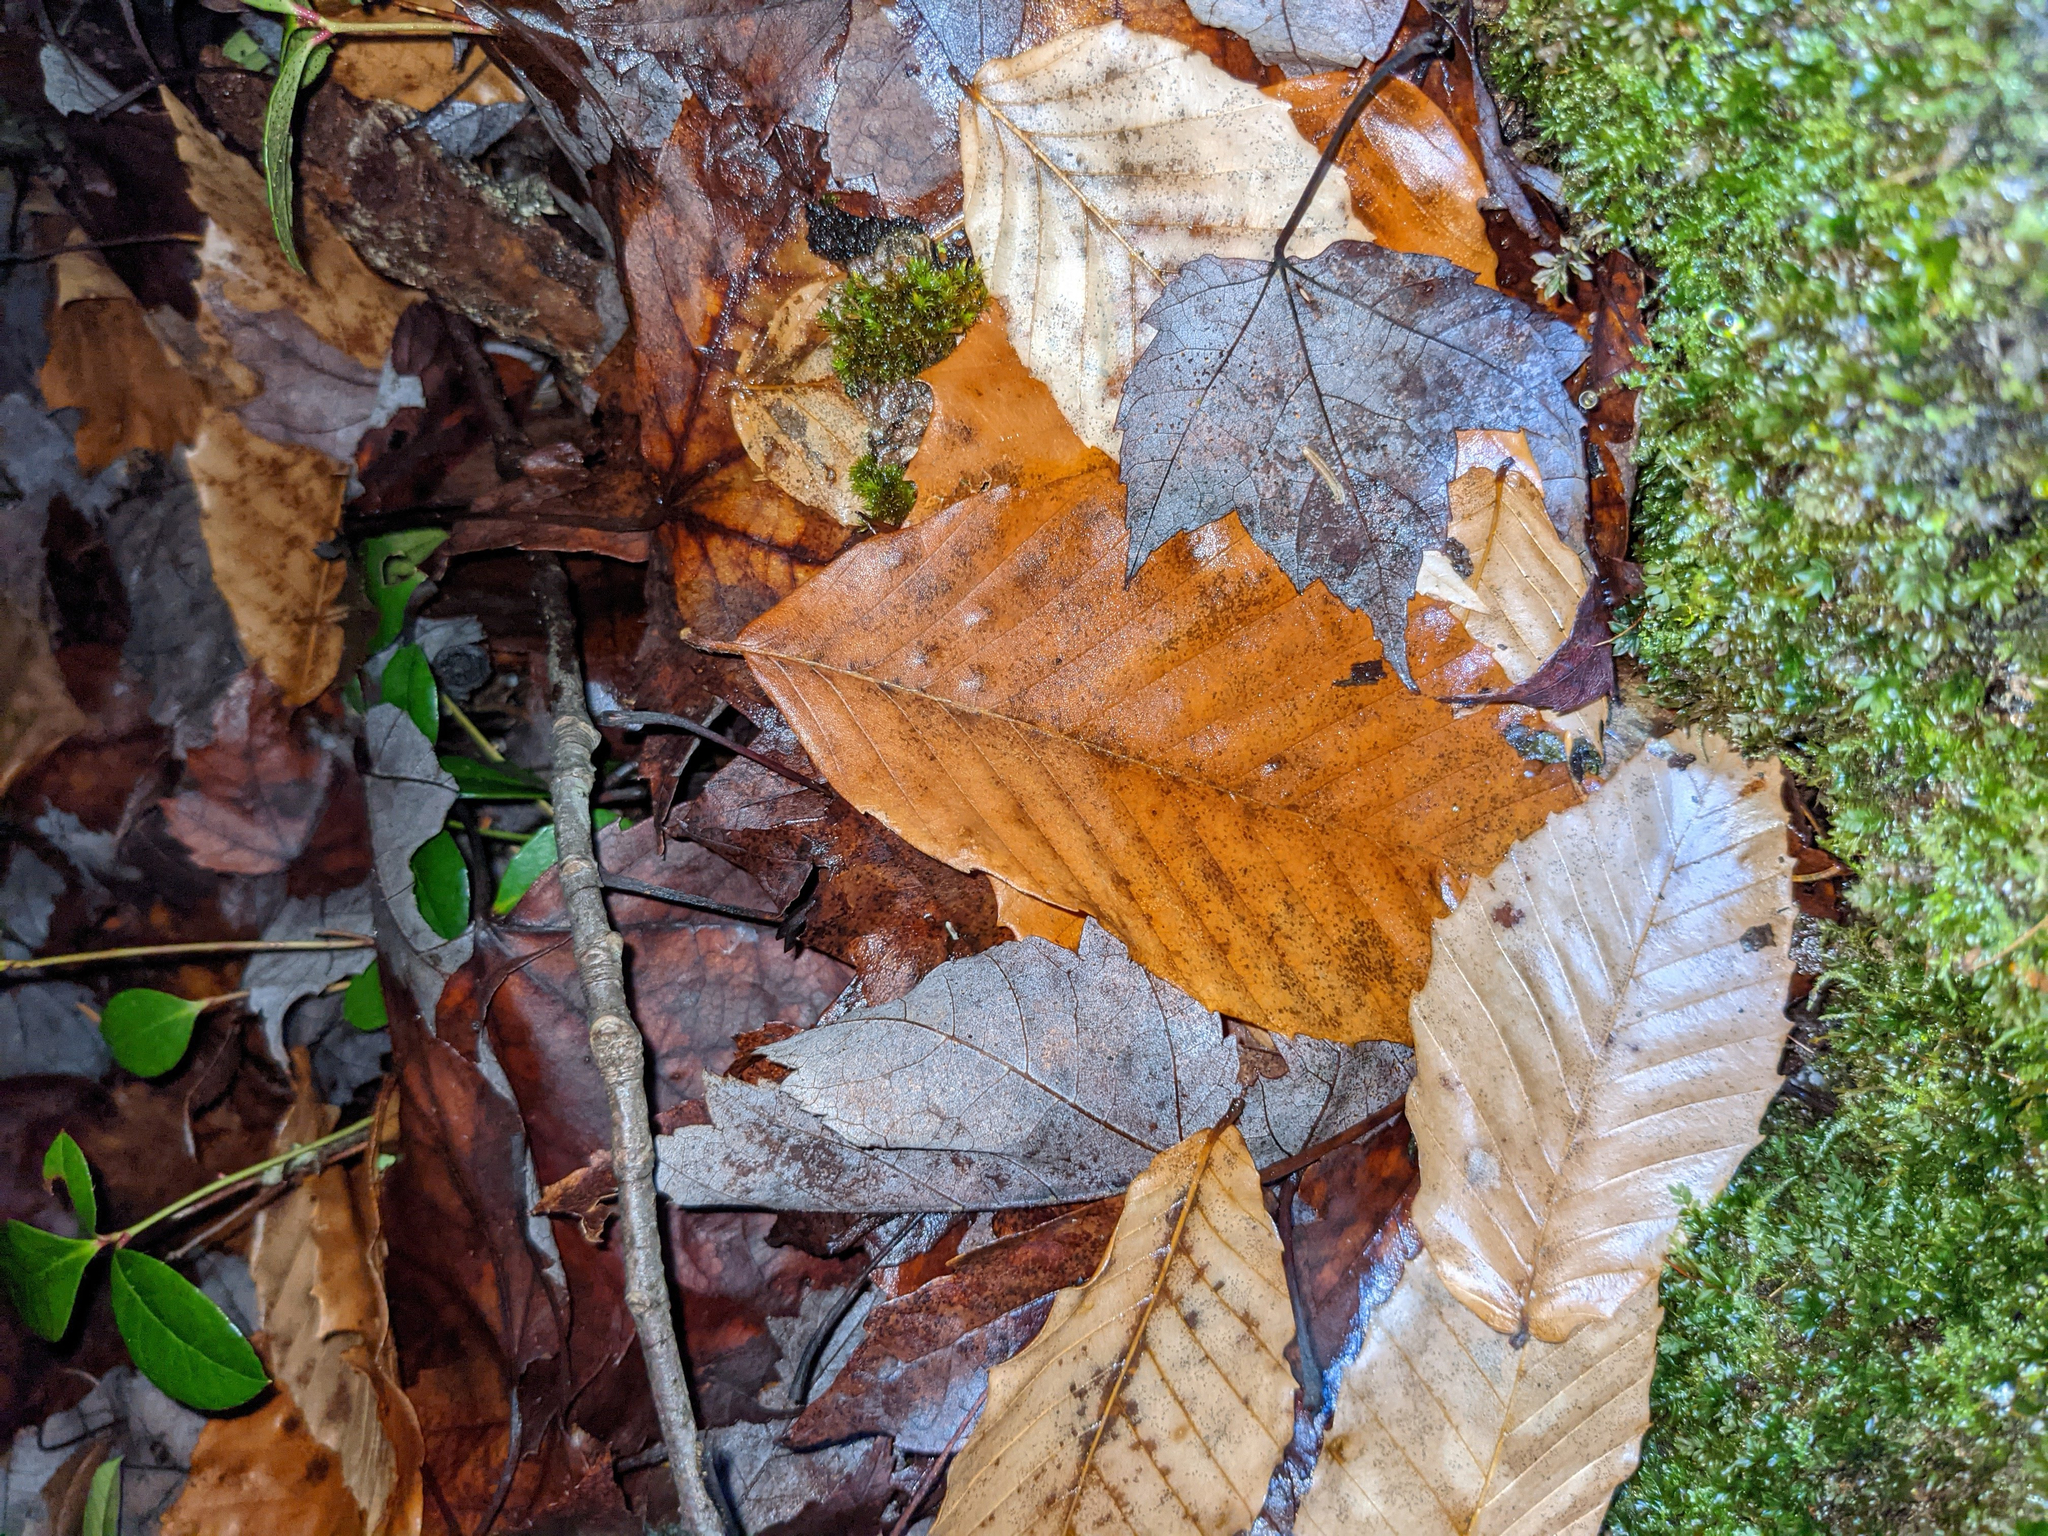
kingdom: Plantae
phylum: Tracheophyta
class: Magnoliopsida
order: Fagales
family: Fagaceae
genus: Fagus
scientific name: Fagus grandifolia
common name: American beech
